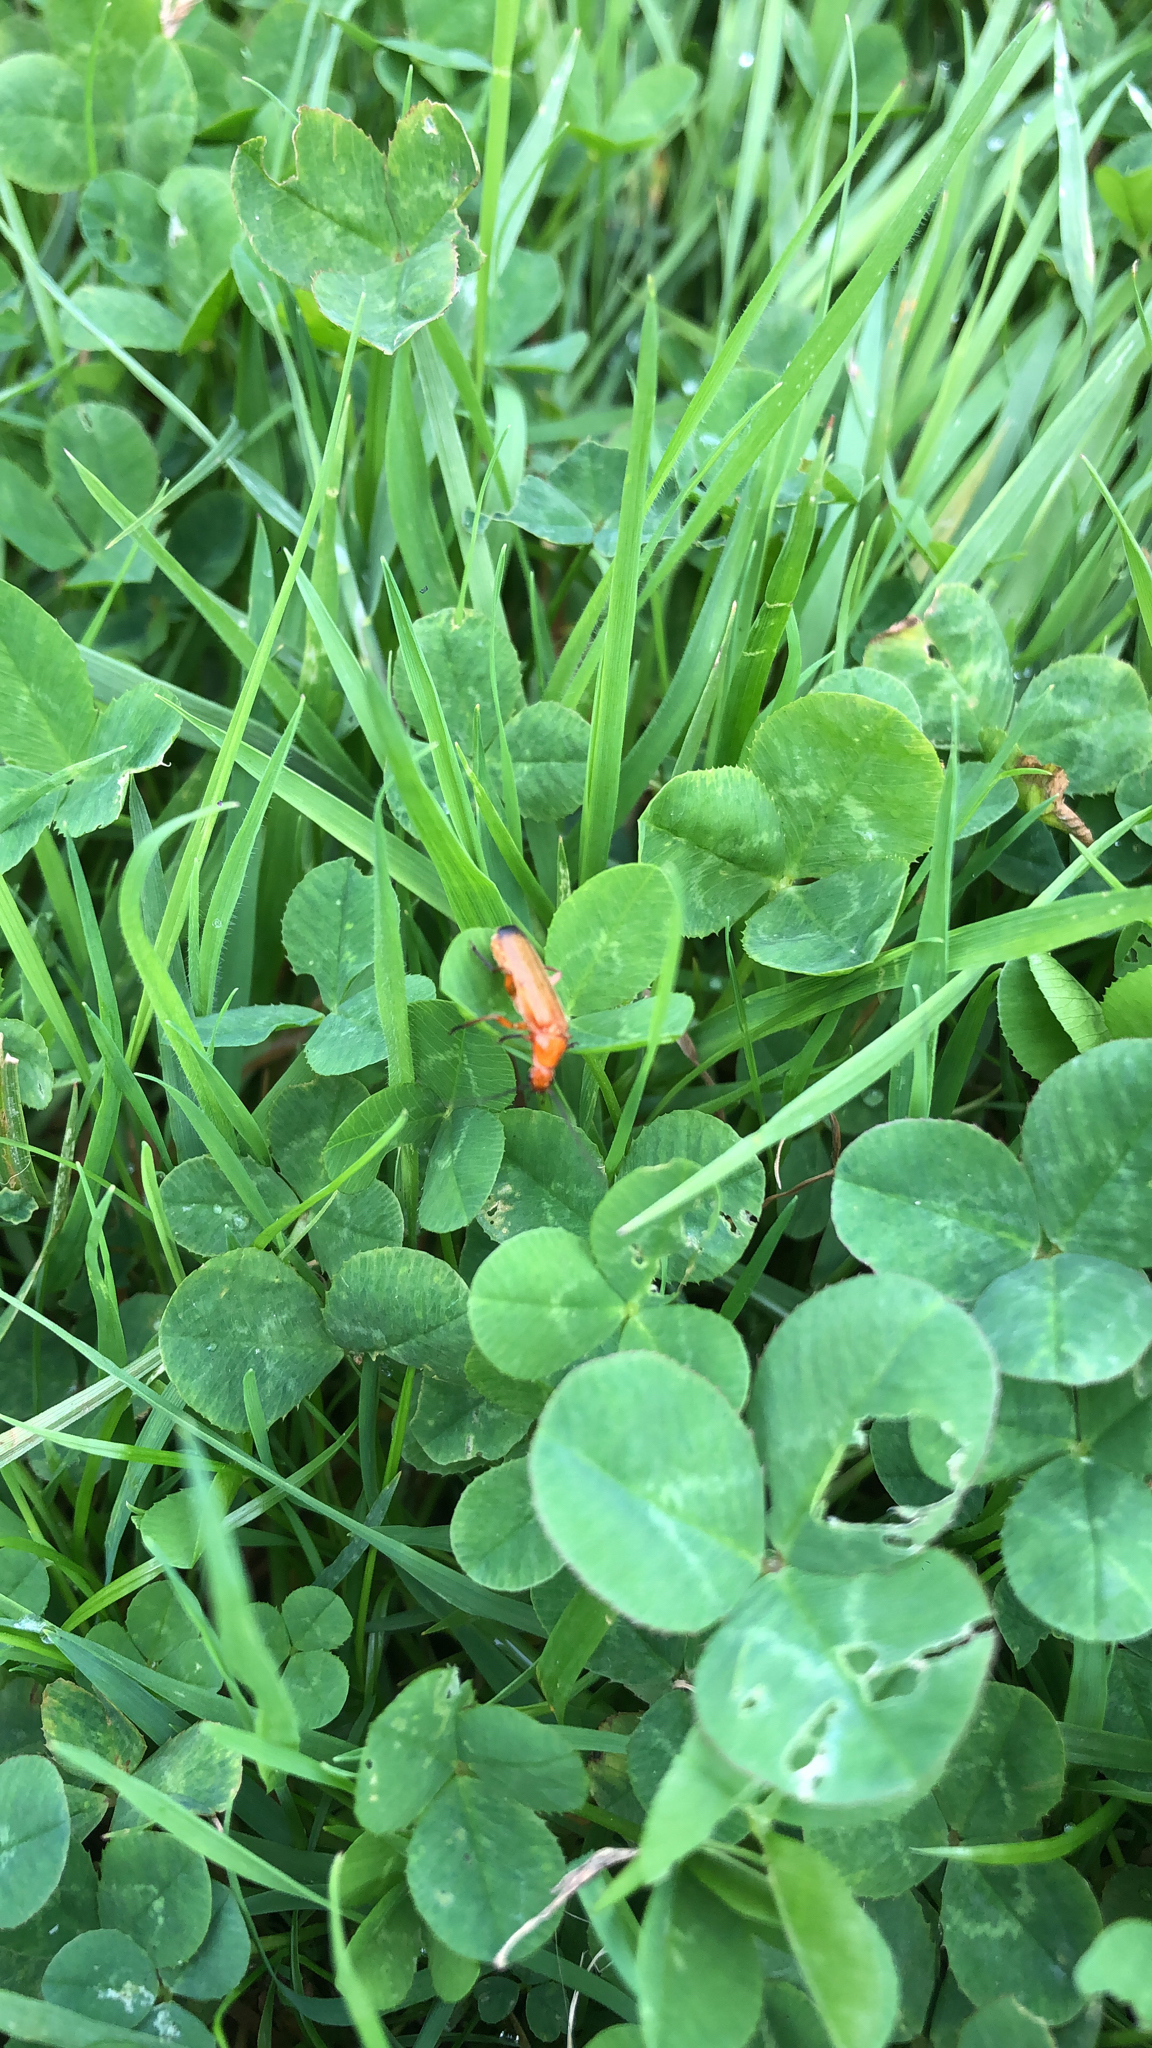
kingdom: Animalia
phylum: Arthropoda
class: Insecta
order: Coleoptera
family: Cantharidae
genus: Rhagonycha
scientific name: Rhagonycha fulva
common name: Common red soldier beetle
